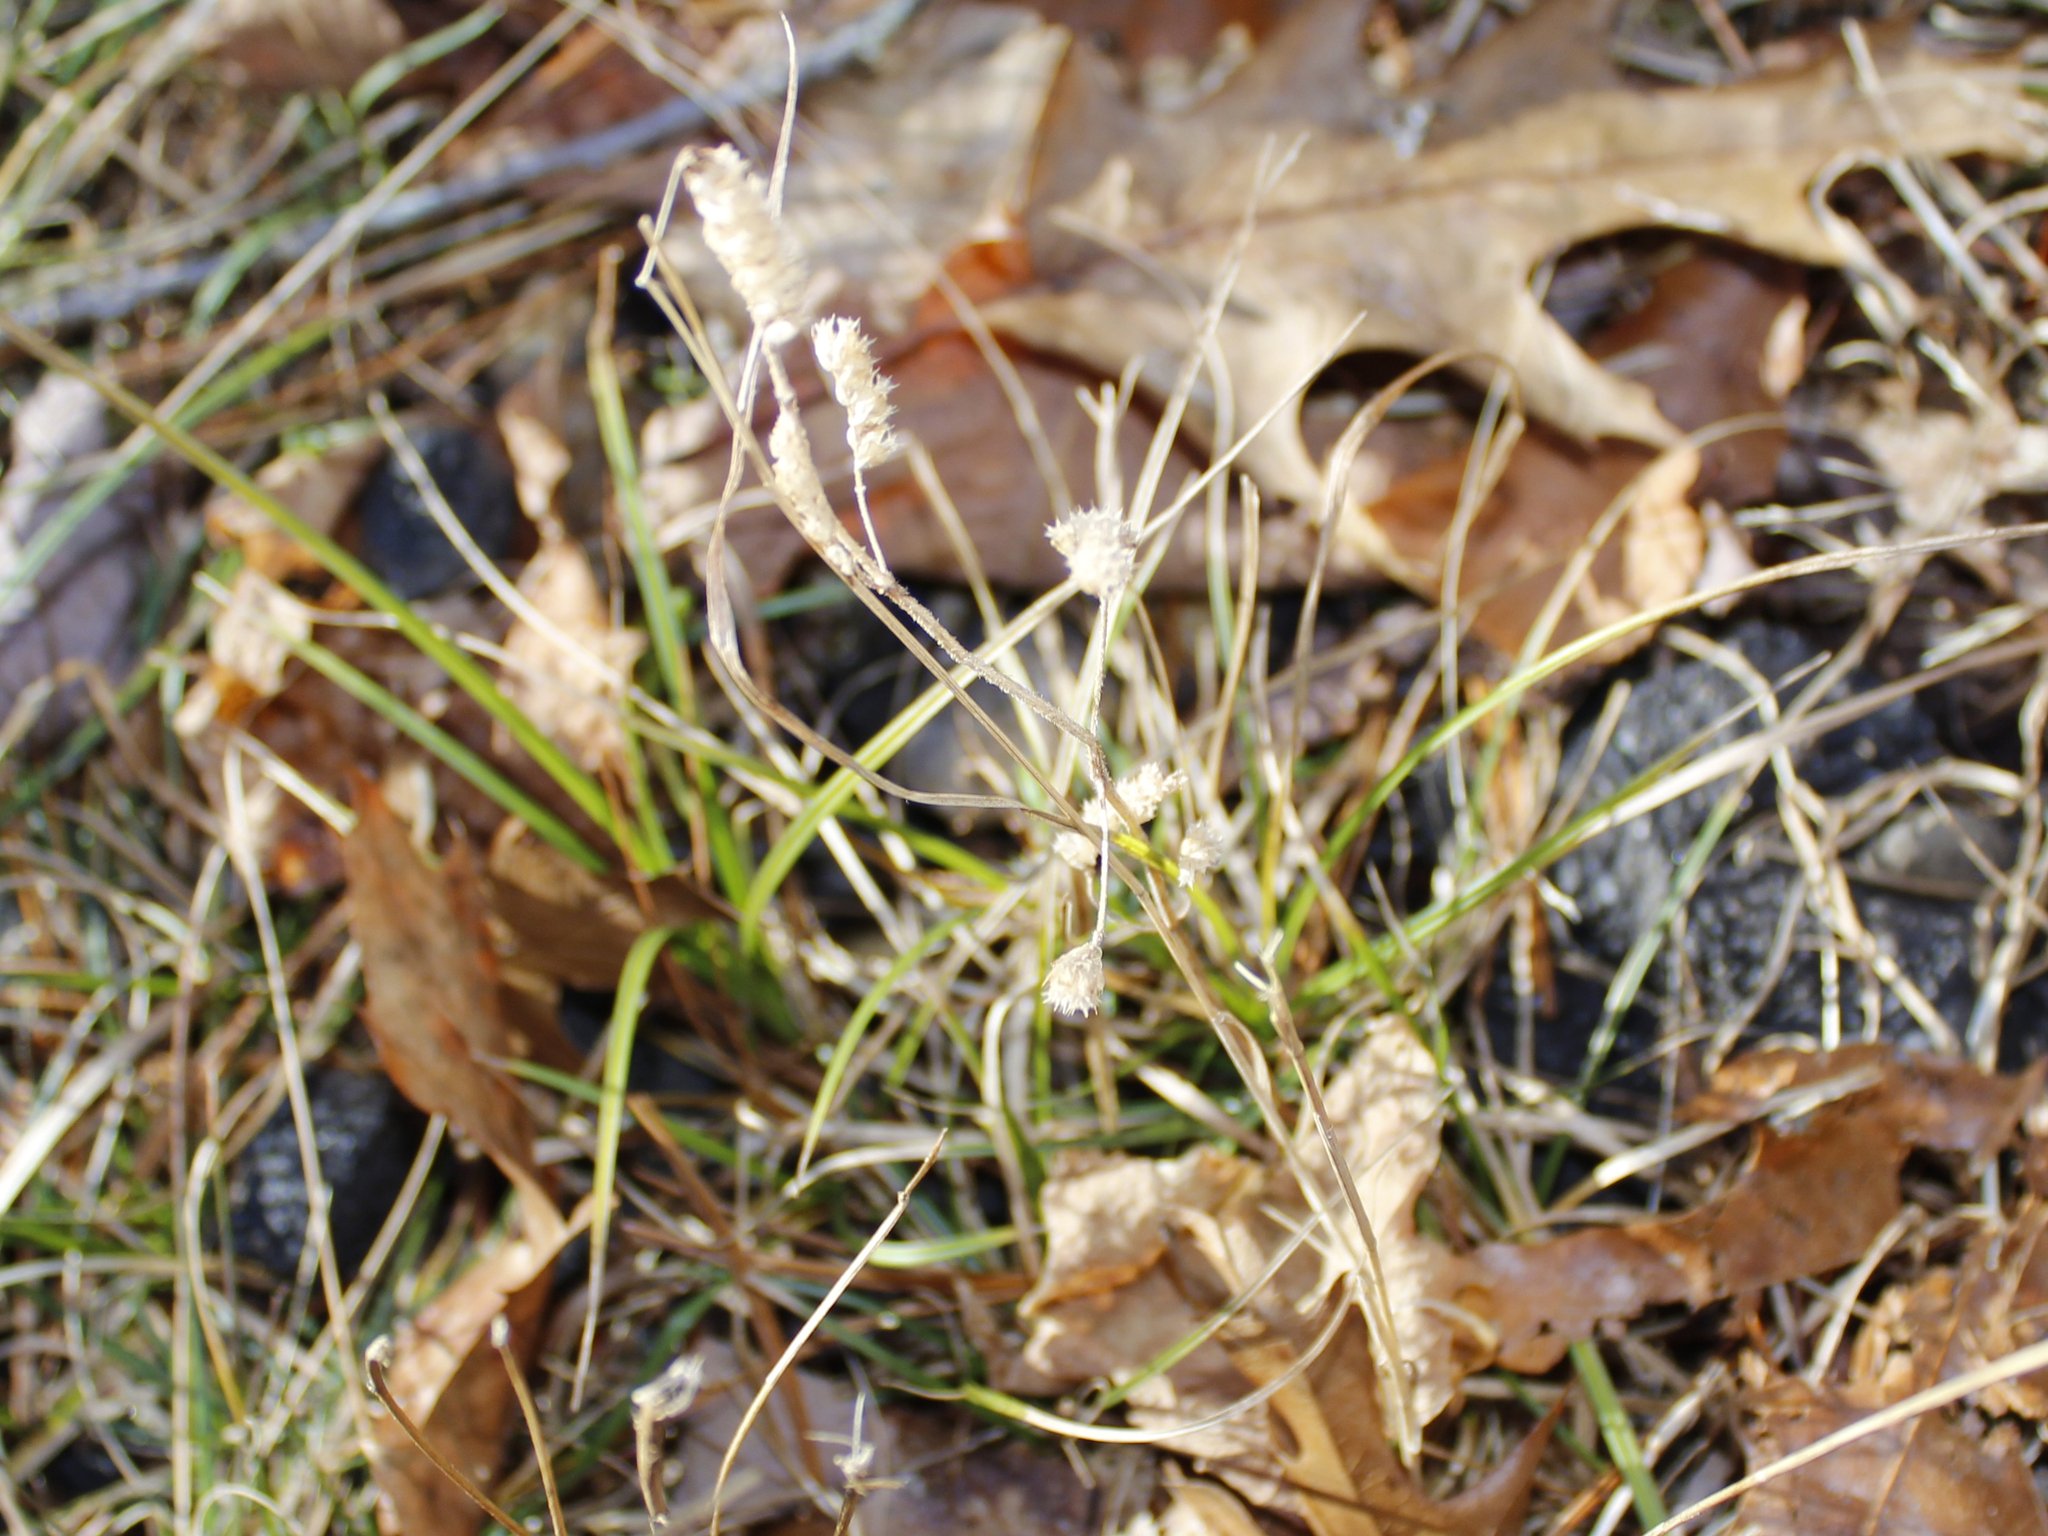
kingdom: Plantae
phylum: Tracheophyta
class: Magnoliopsida
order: Lamiales
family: Lamiaceae
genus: Elsholtzia
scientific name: Elsholtzia ciliata
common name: Ciliate elsholtzia
